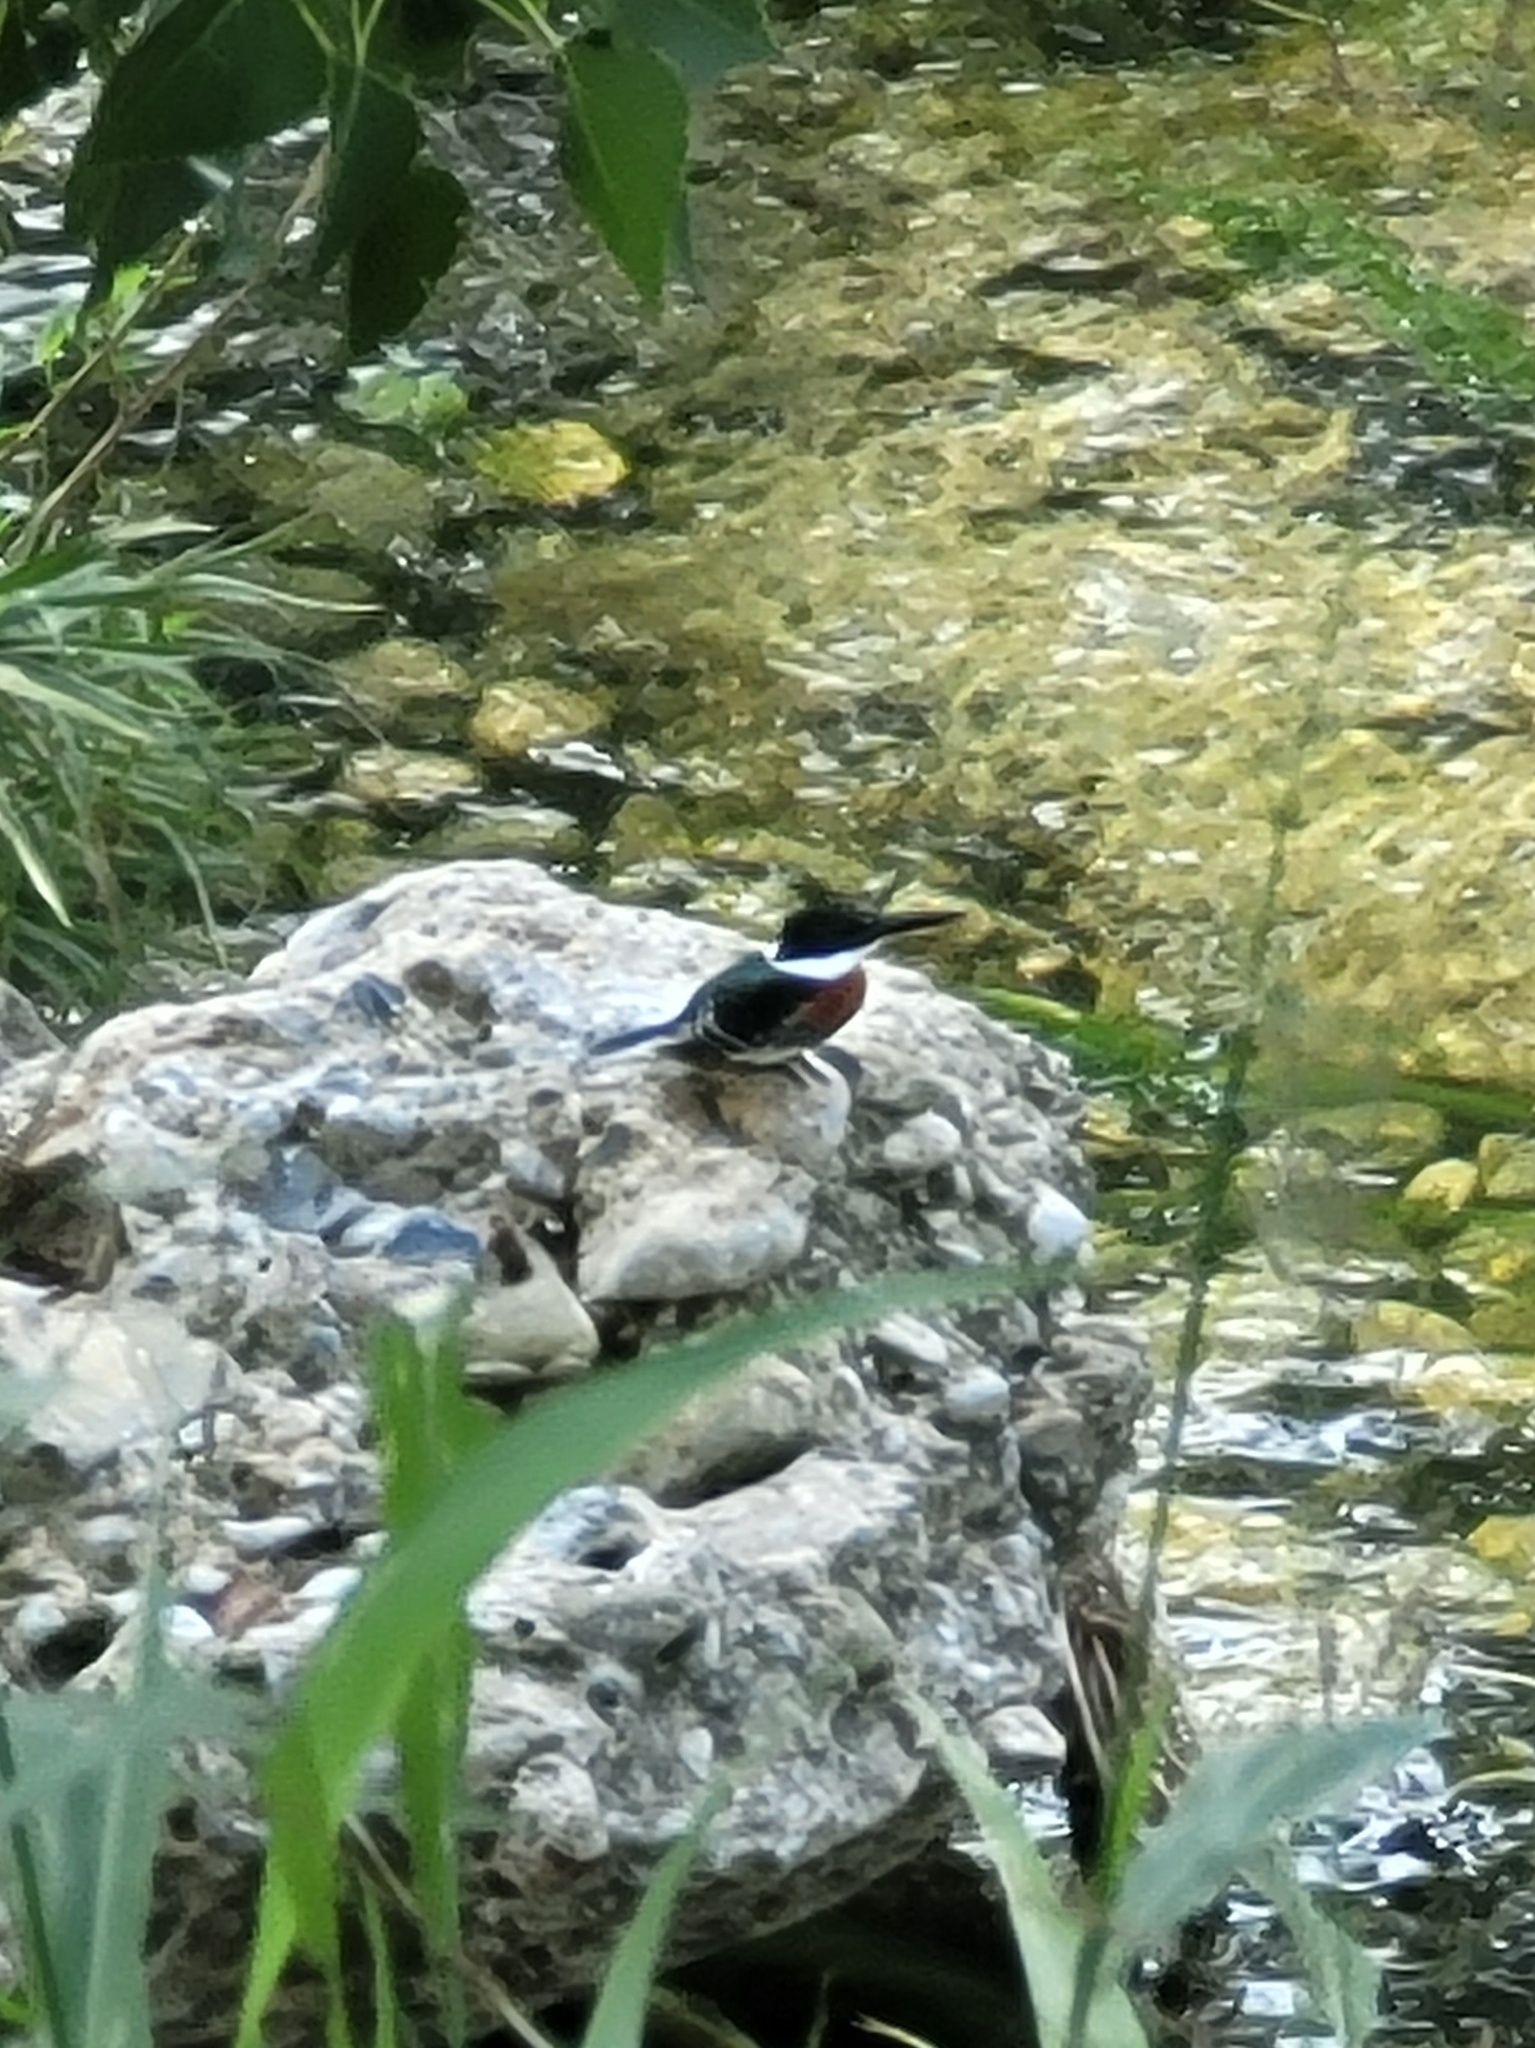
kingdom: Animalia
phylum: Chordata
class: Aves
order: Coraciiformes
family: Alcedinidae
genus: Chloroceryle
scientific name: Chloroceryle americana
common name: Green kingfisher
